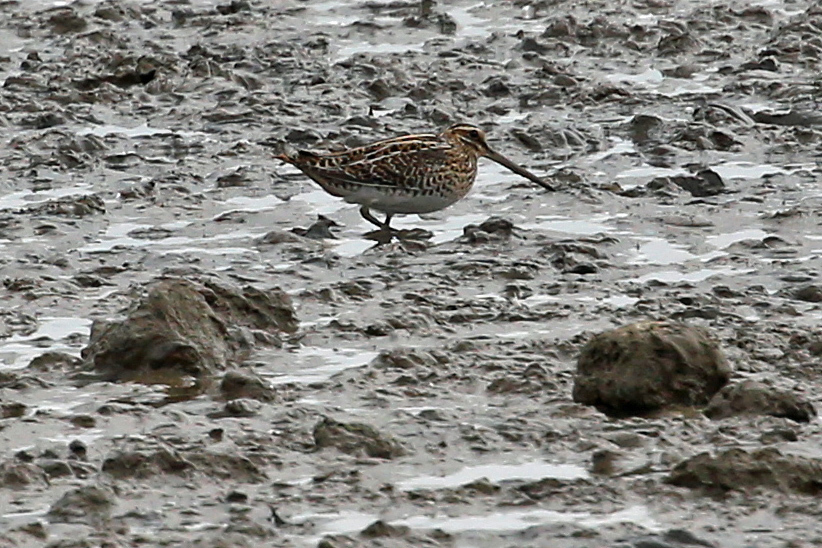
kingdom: Animalia
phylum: Chordata
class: Aves
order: Charadriiformes
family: Scolopacidae
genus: Gallinago
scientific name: Gallinago gallinago
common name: Common snipe
